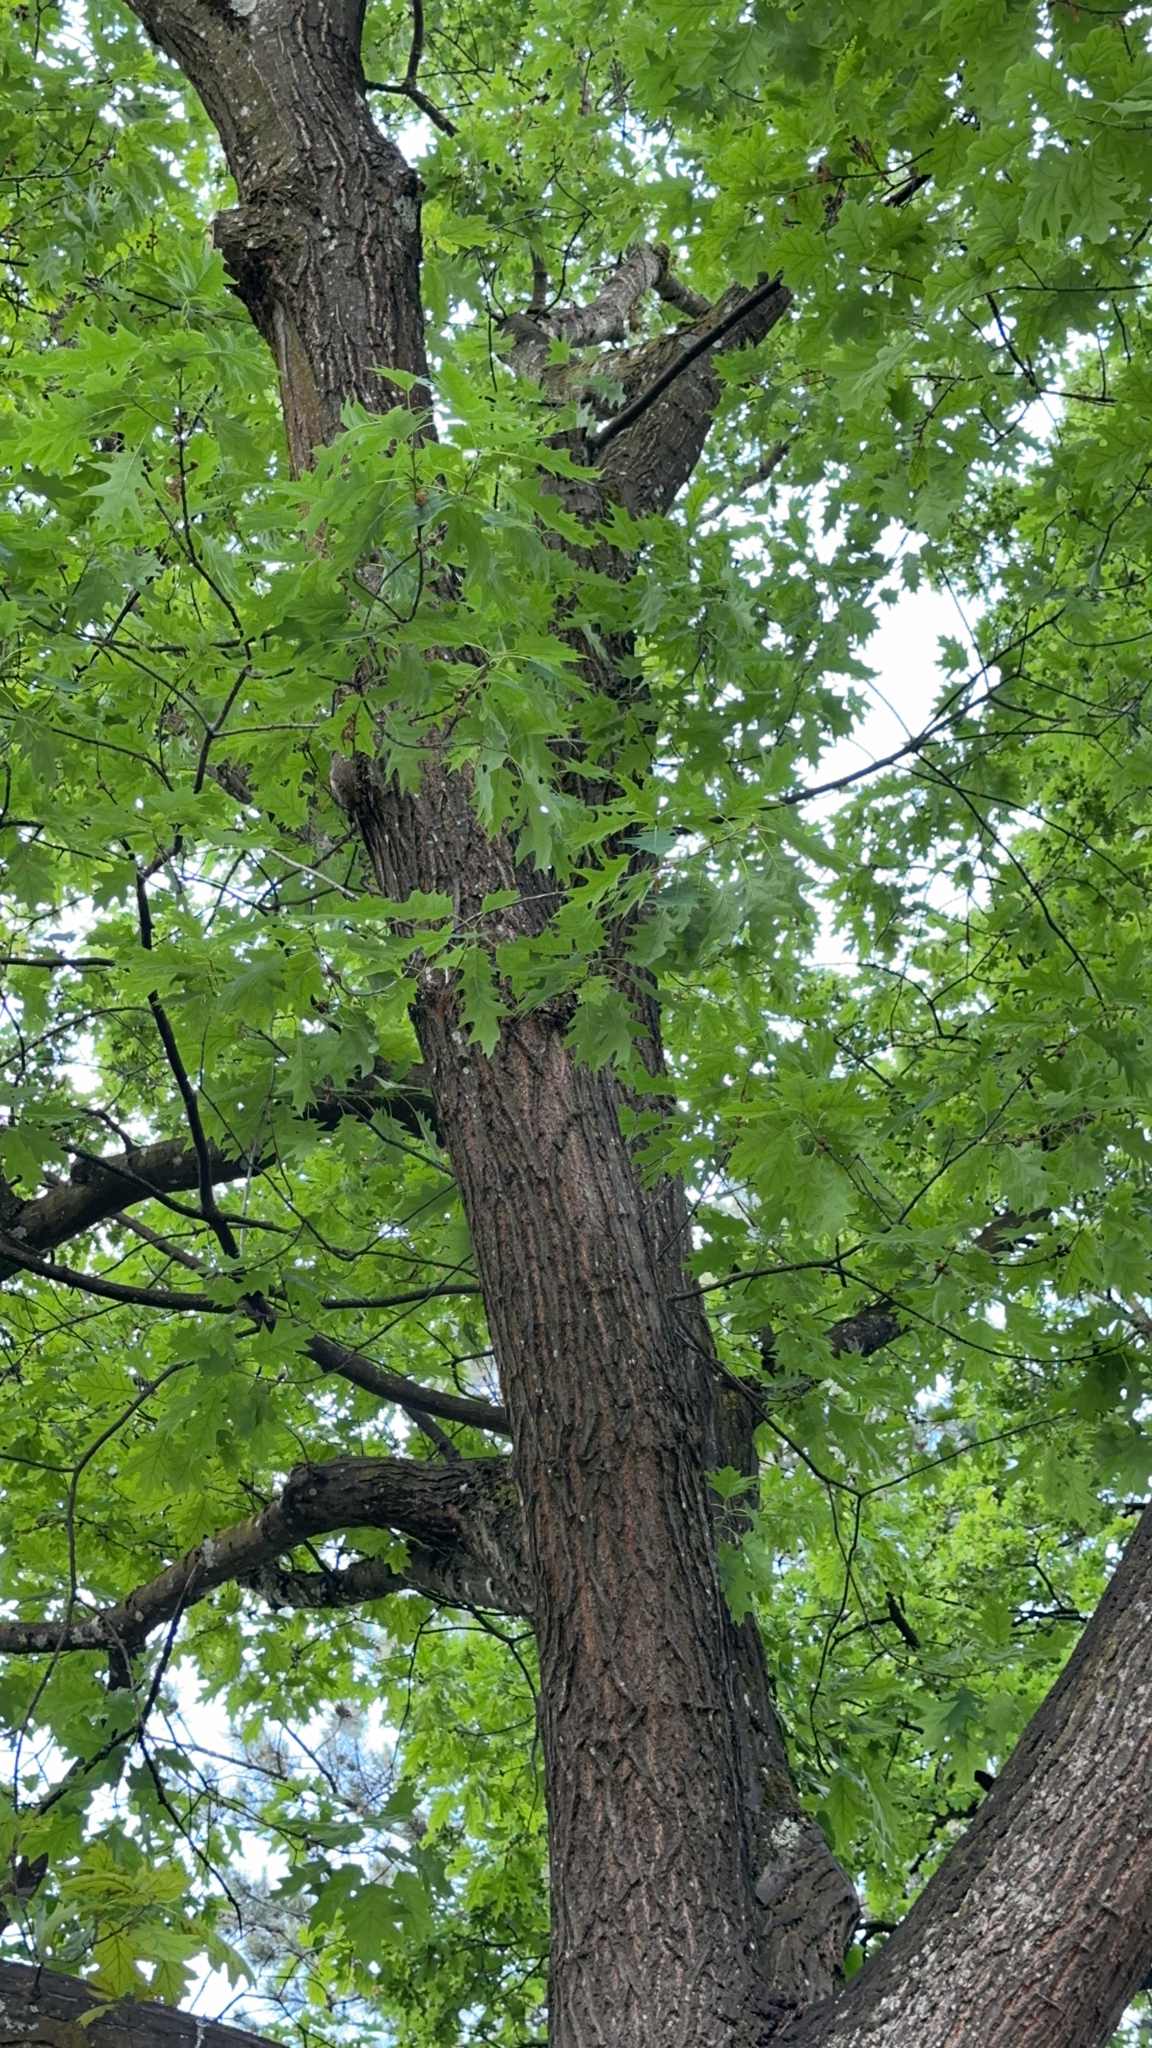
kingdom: Plantae
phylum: Tracheophyta
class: Magnoliopsida
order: Fagales
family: Fagaceae
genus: Quercus
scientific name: Quercus rubra
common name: Red oak
